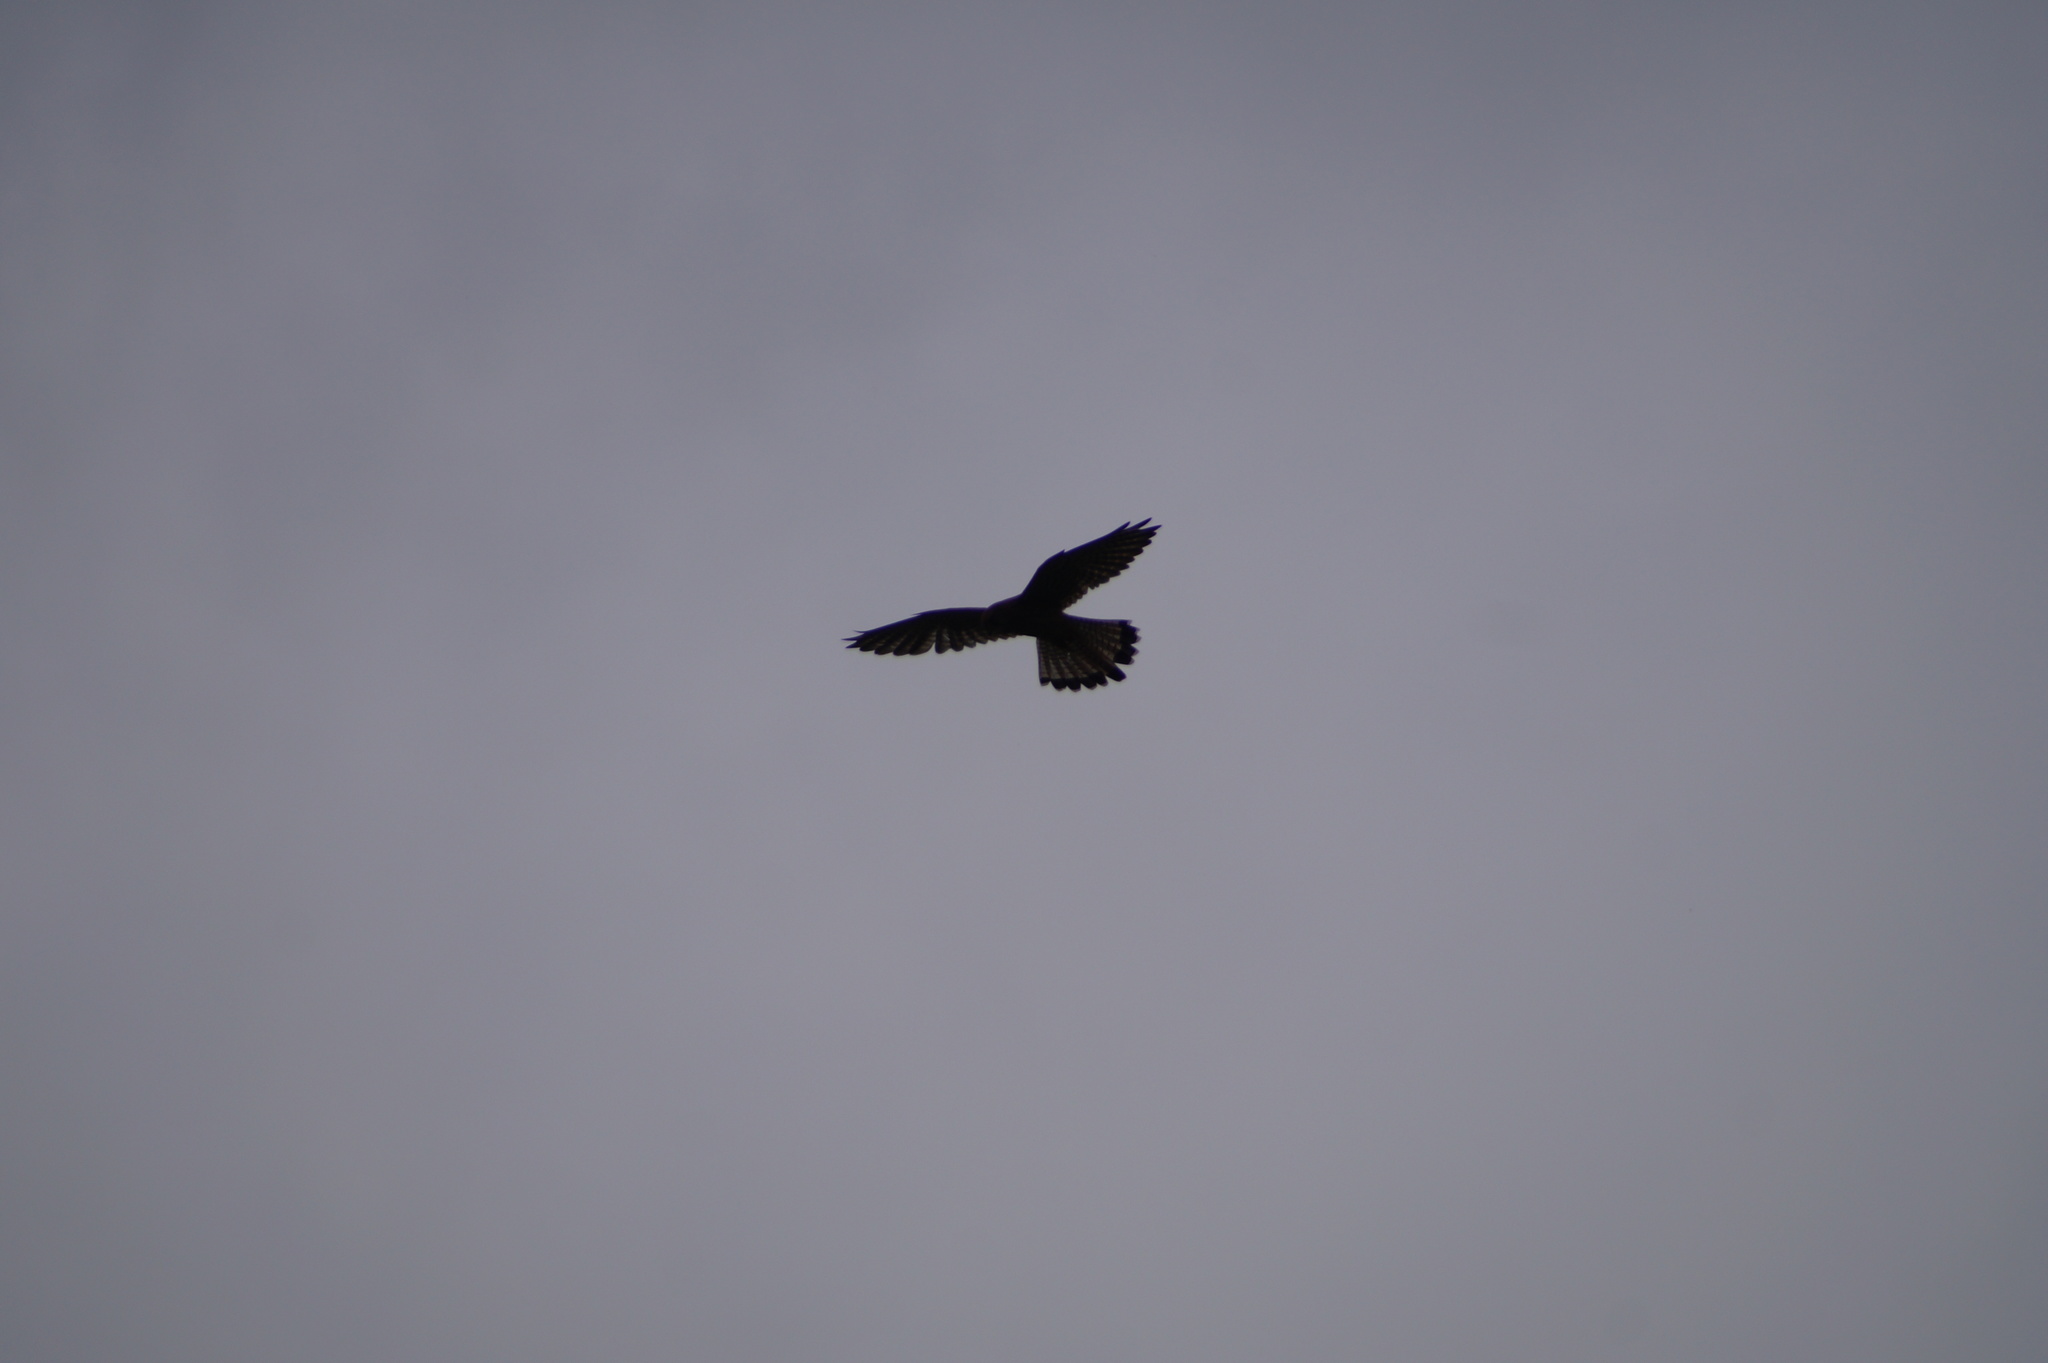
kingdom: Animalia
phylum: Chordata
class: Aves
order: Falconiformes
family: Falconidae
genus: Falco
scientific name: Falco tinnunculus
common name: Common kestrel
